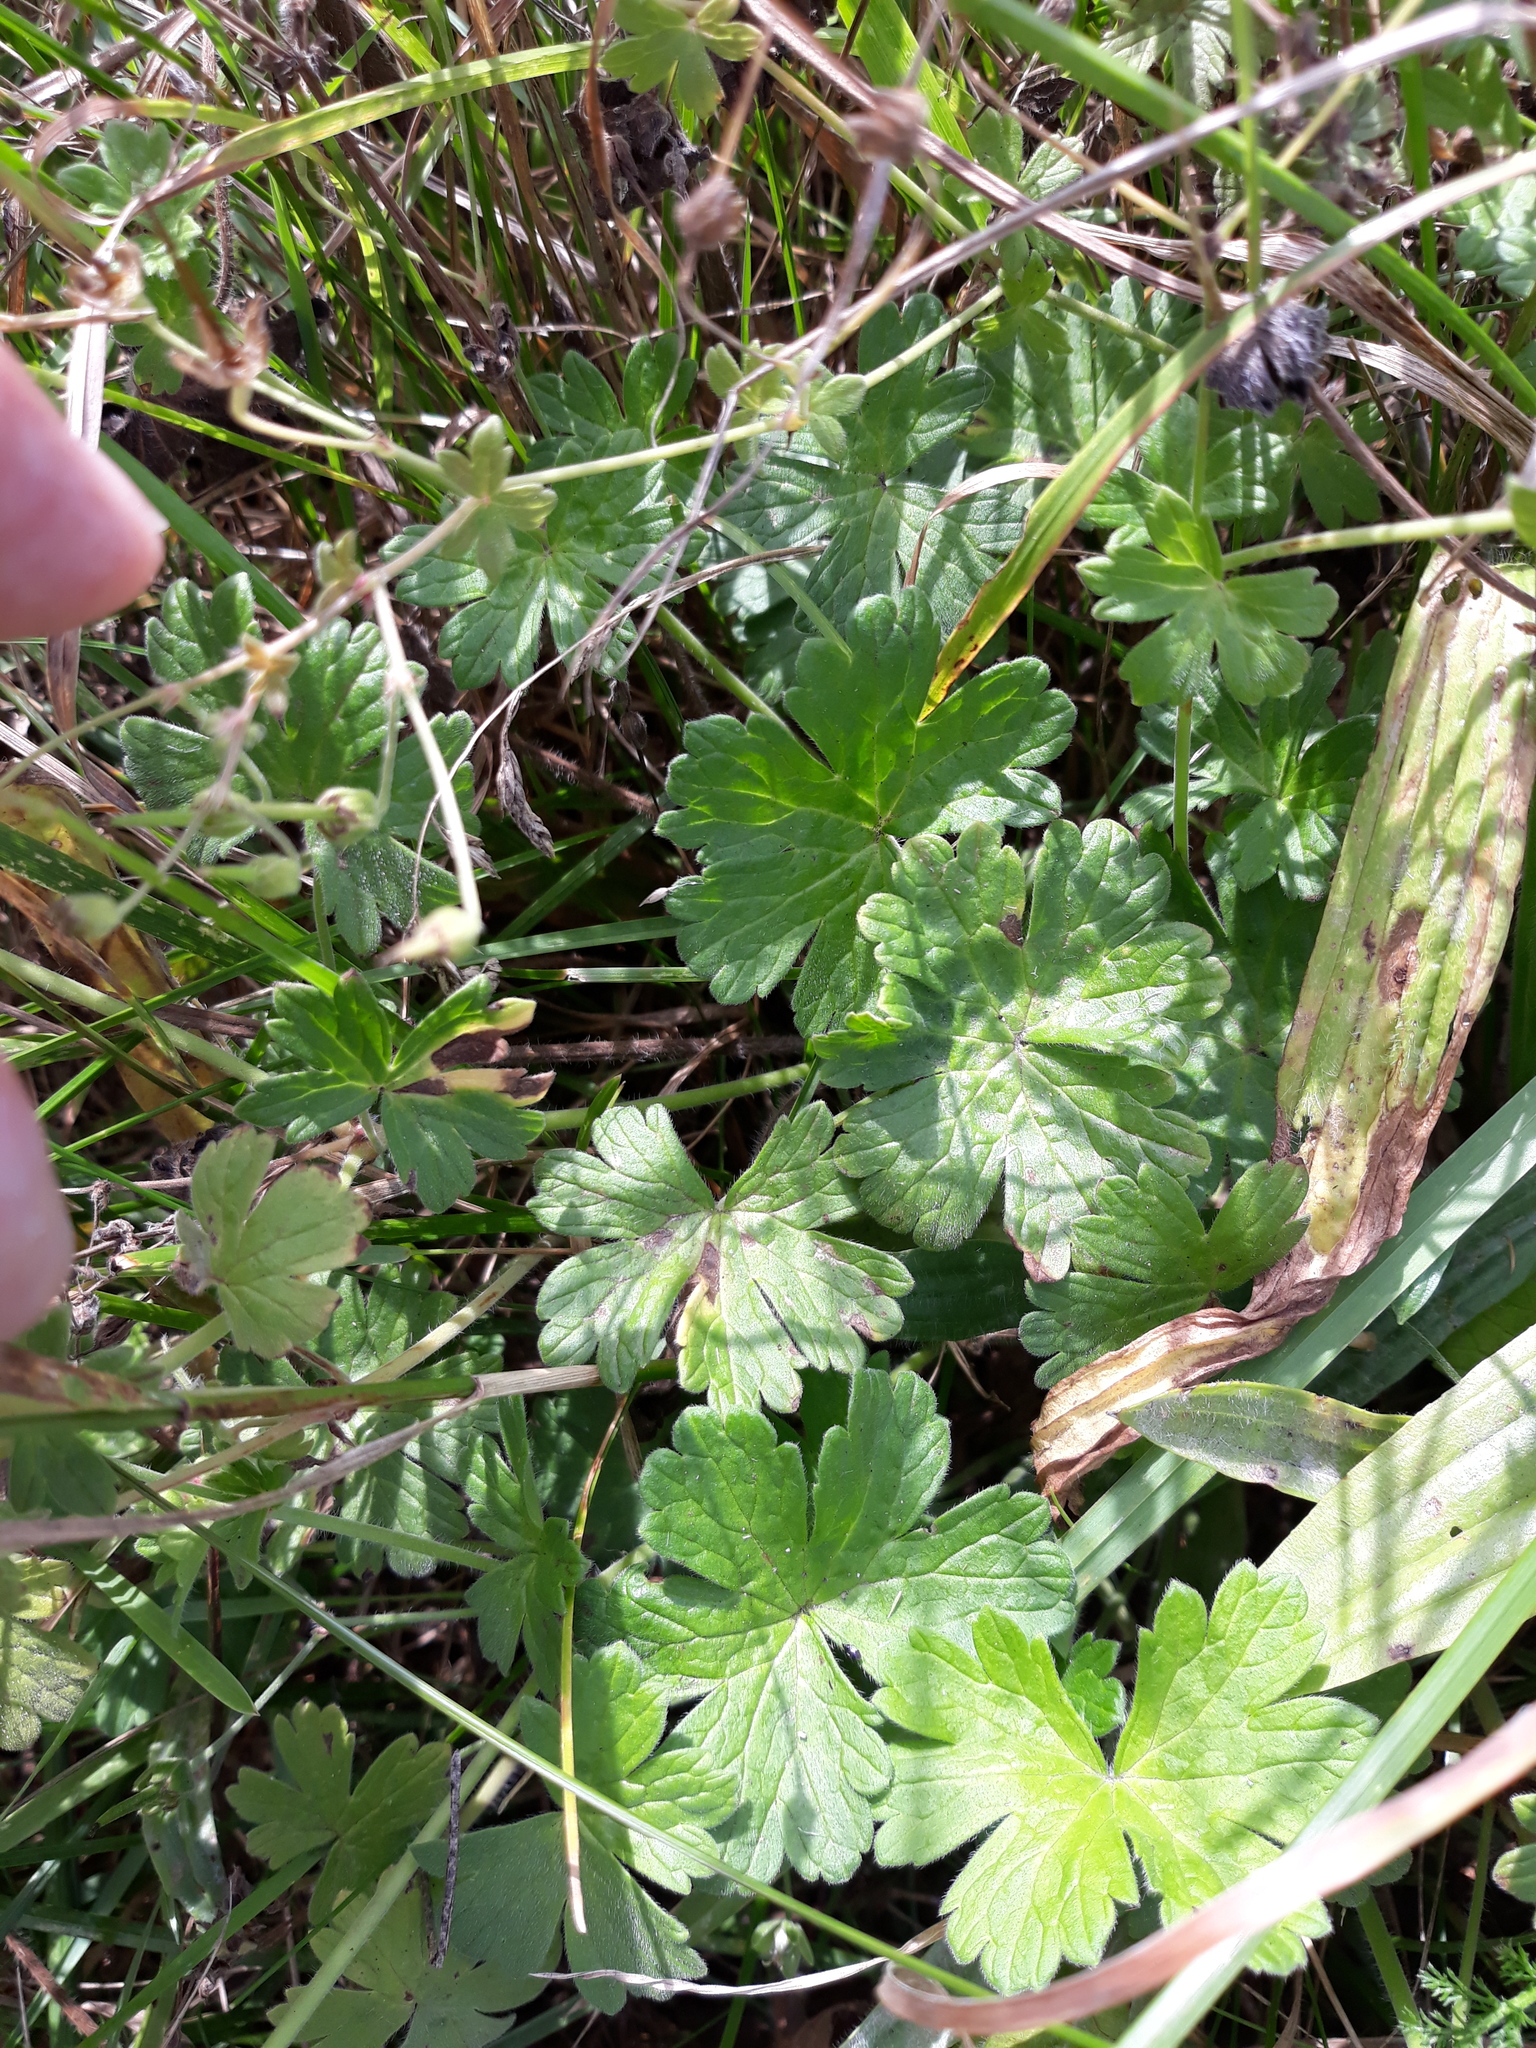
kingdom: Plantae
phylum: Tracheophyta
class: Magnoliopsida
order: Geraniales
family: Geraniaceae
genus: Geranium
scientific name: Geranium pyrenaicum
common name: Hedgerow crane's-bill
